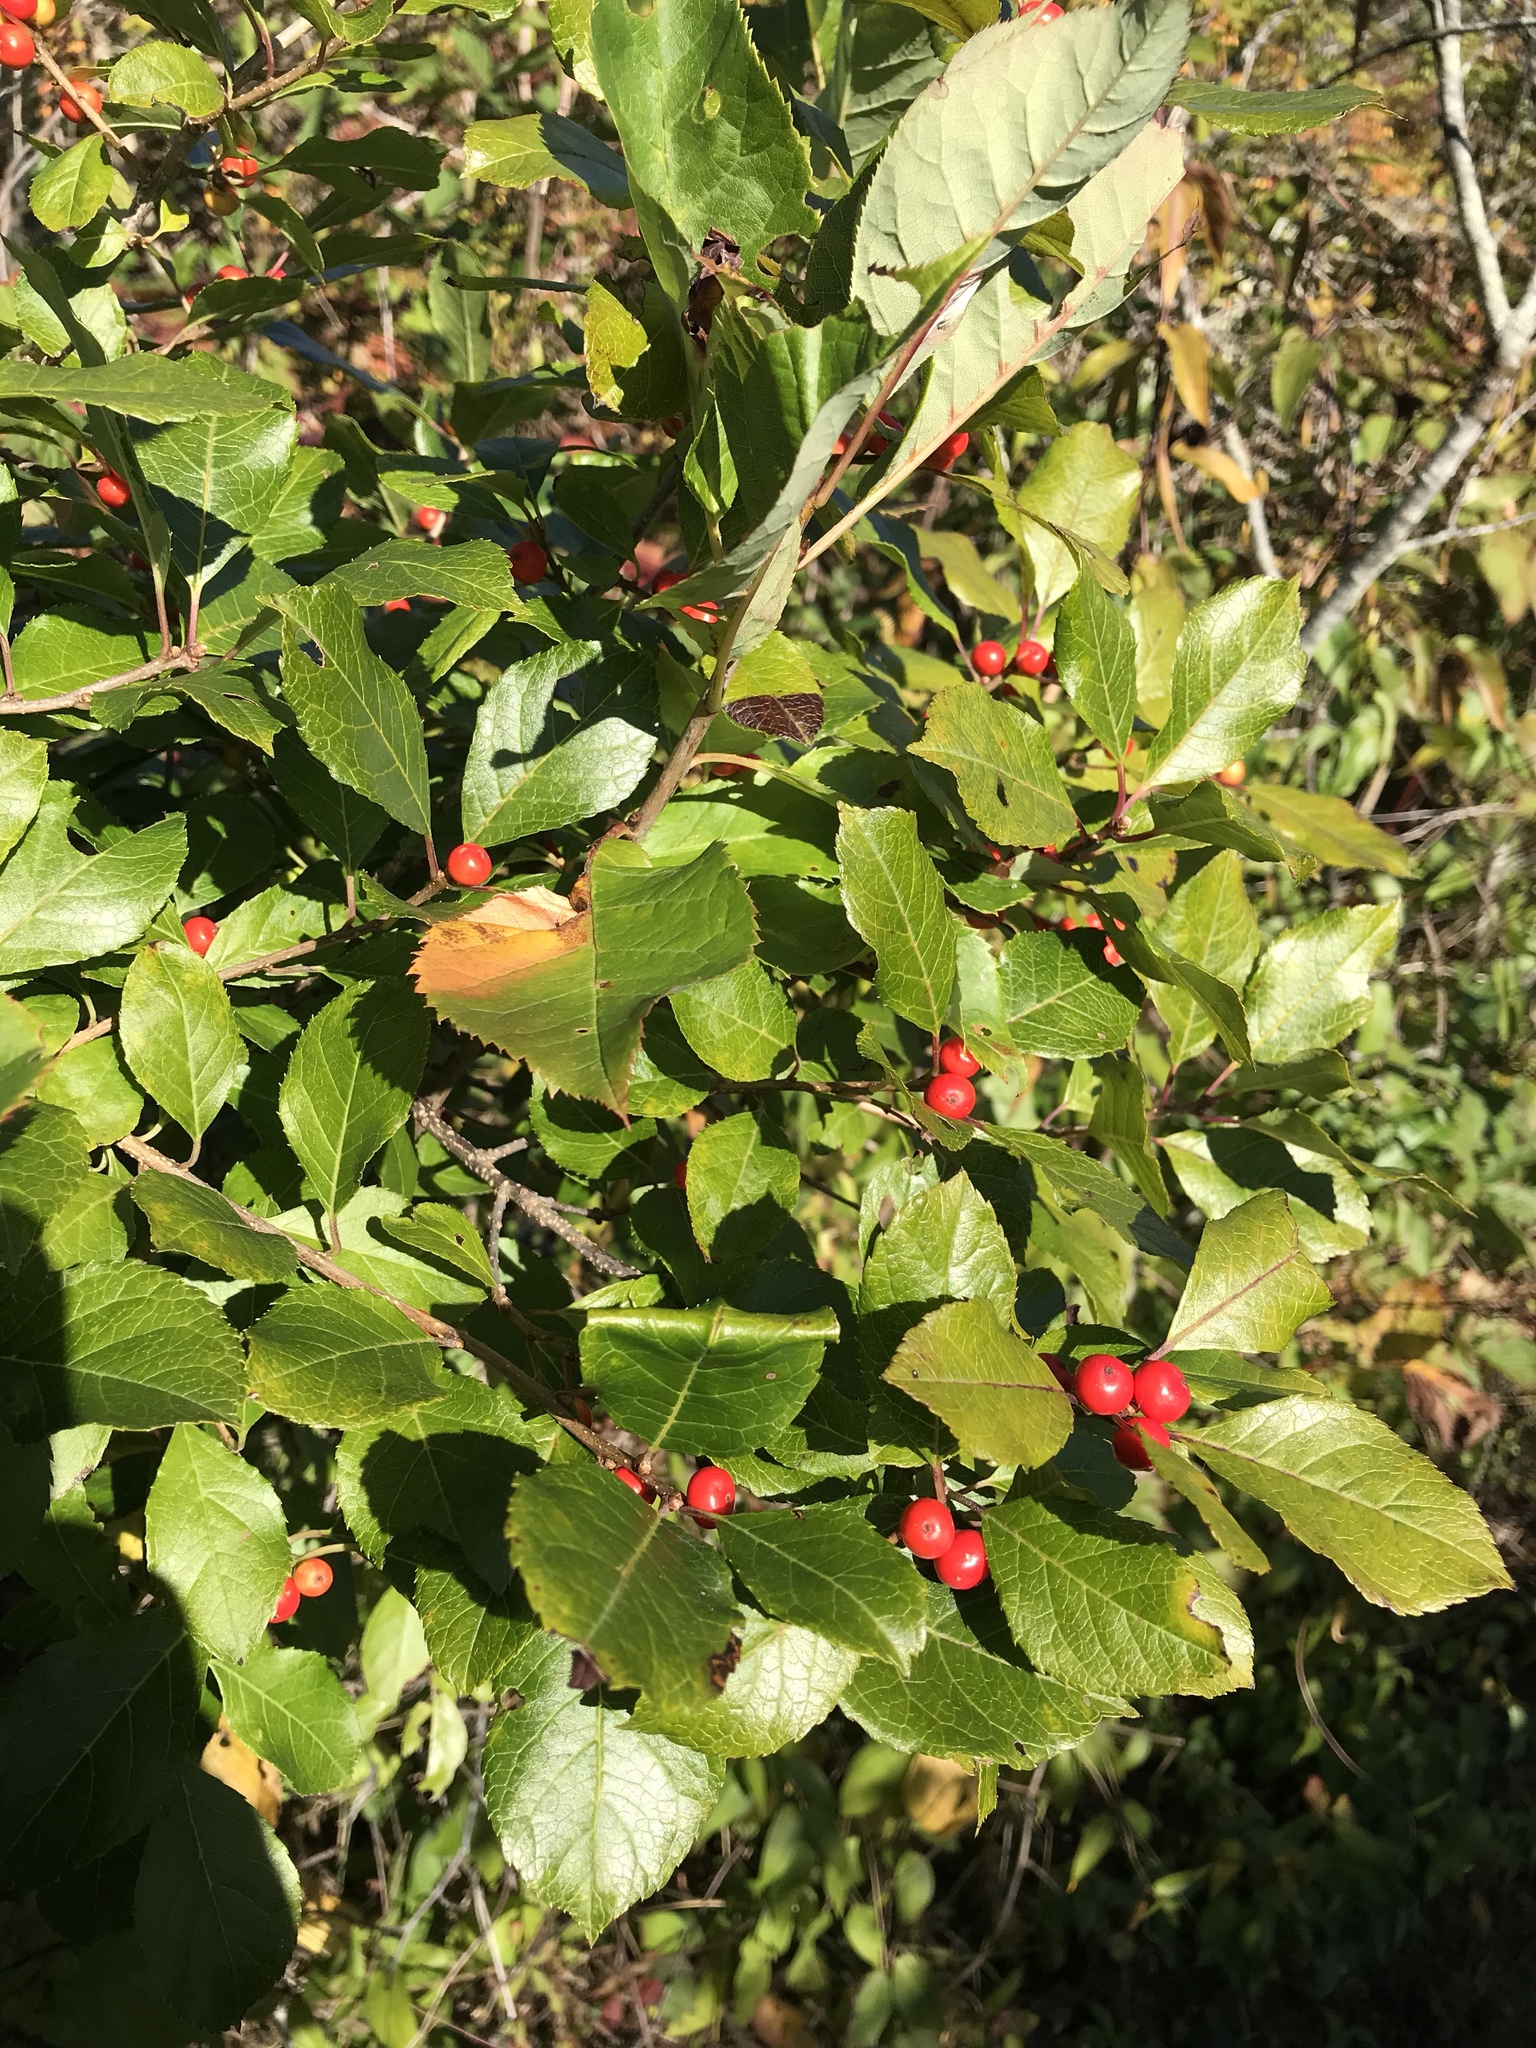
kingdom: Plantae
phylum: Tracheophyta
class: Magnoliopsida
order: Aquifoliales
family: Aquifoliaceae
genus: Ilex
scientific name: Ilex verticillata
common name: Virginia winterberry
